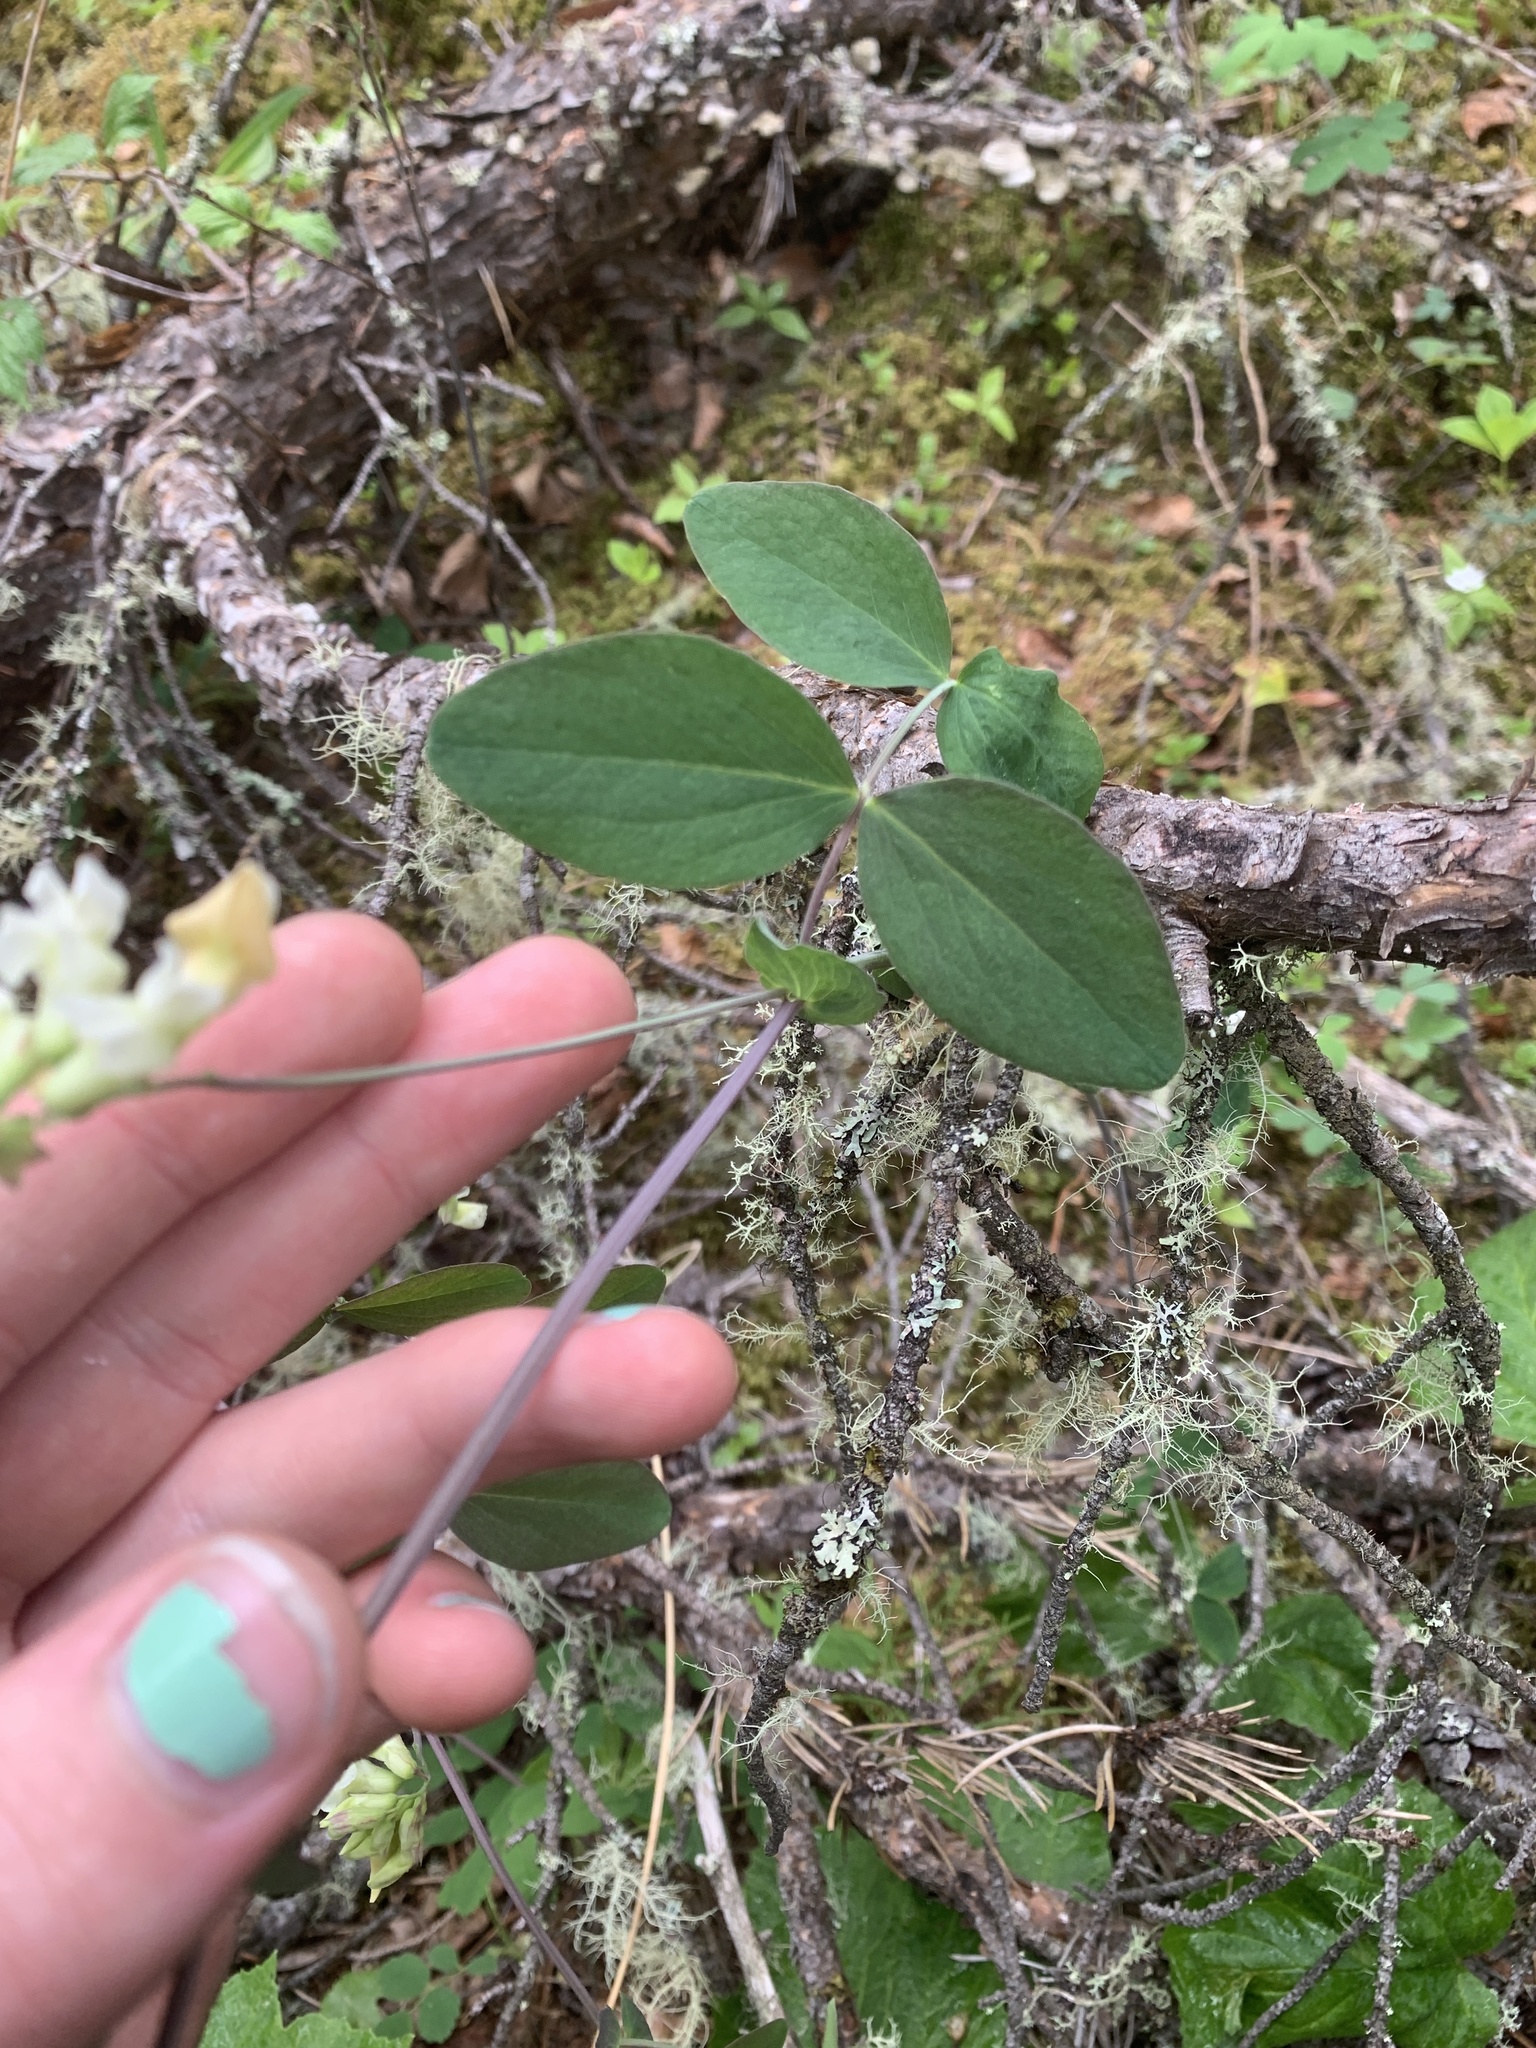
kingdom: Plantae
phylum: Tracheophyta
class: Magnoliopsida
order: Fabales
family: Fabaceae
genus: Lathyrus
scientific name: Lathyrus ochroleucus
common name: Pale vetchling
